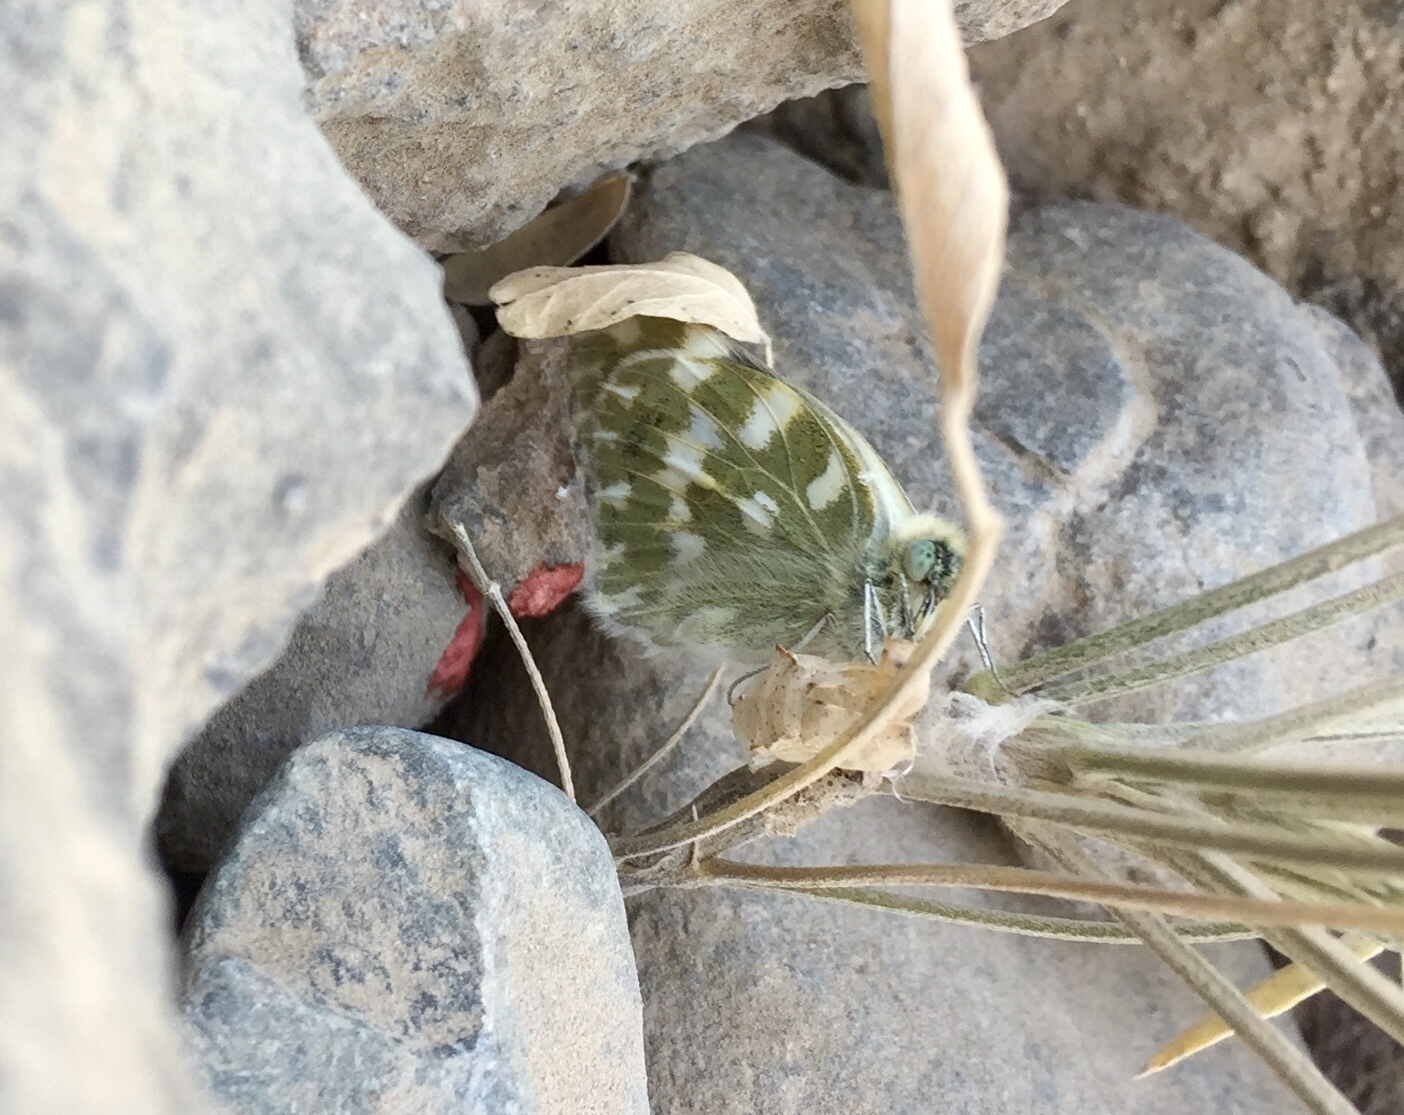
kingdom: Animalia
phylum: Arthropoda
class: Insecta
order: Lepidoptera
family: Pieridae
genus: Pontia
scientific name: Pontia daplidice
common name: Bath white
